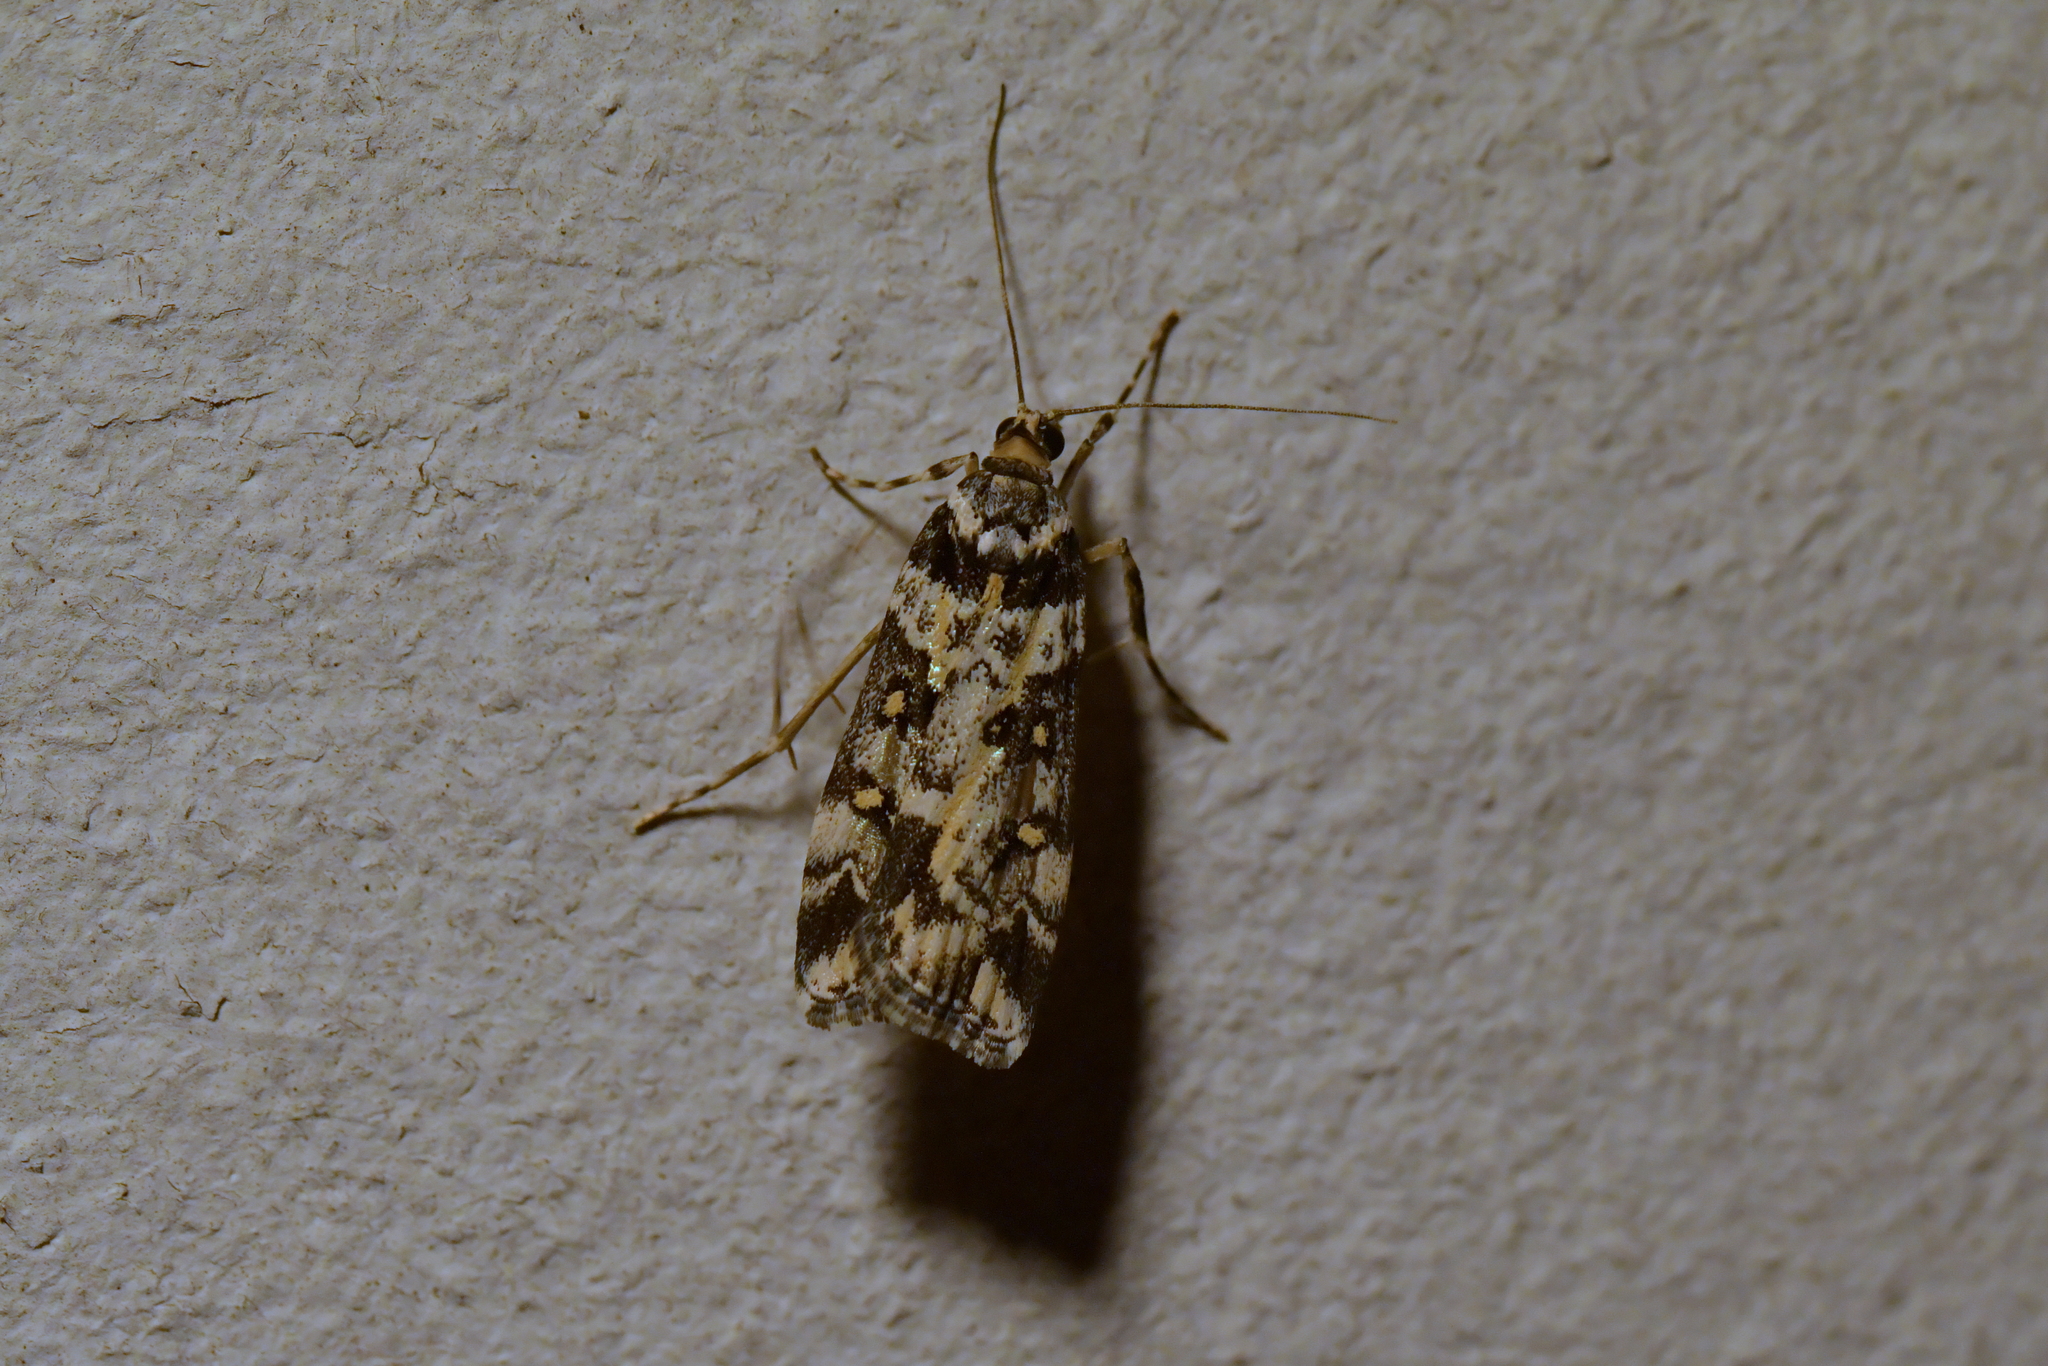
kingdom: Animalia
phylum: Arthropoda
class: Insecta
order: Lepidoptera
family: Crambidae
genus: Eudonia
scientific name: Eudonia diphtheralis
